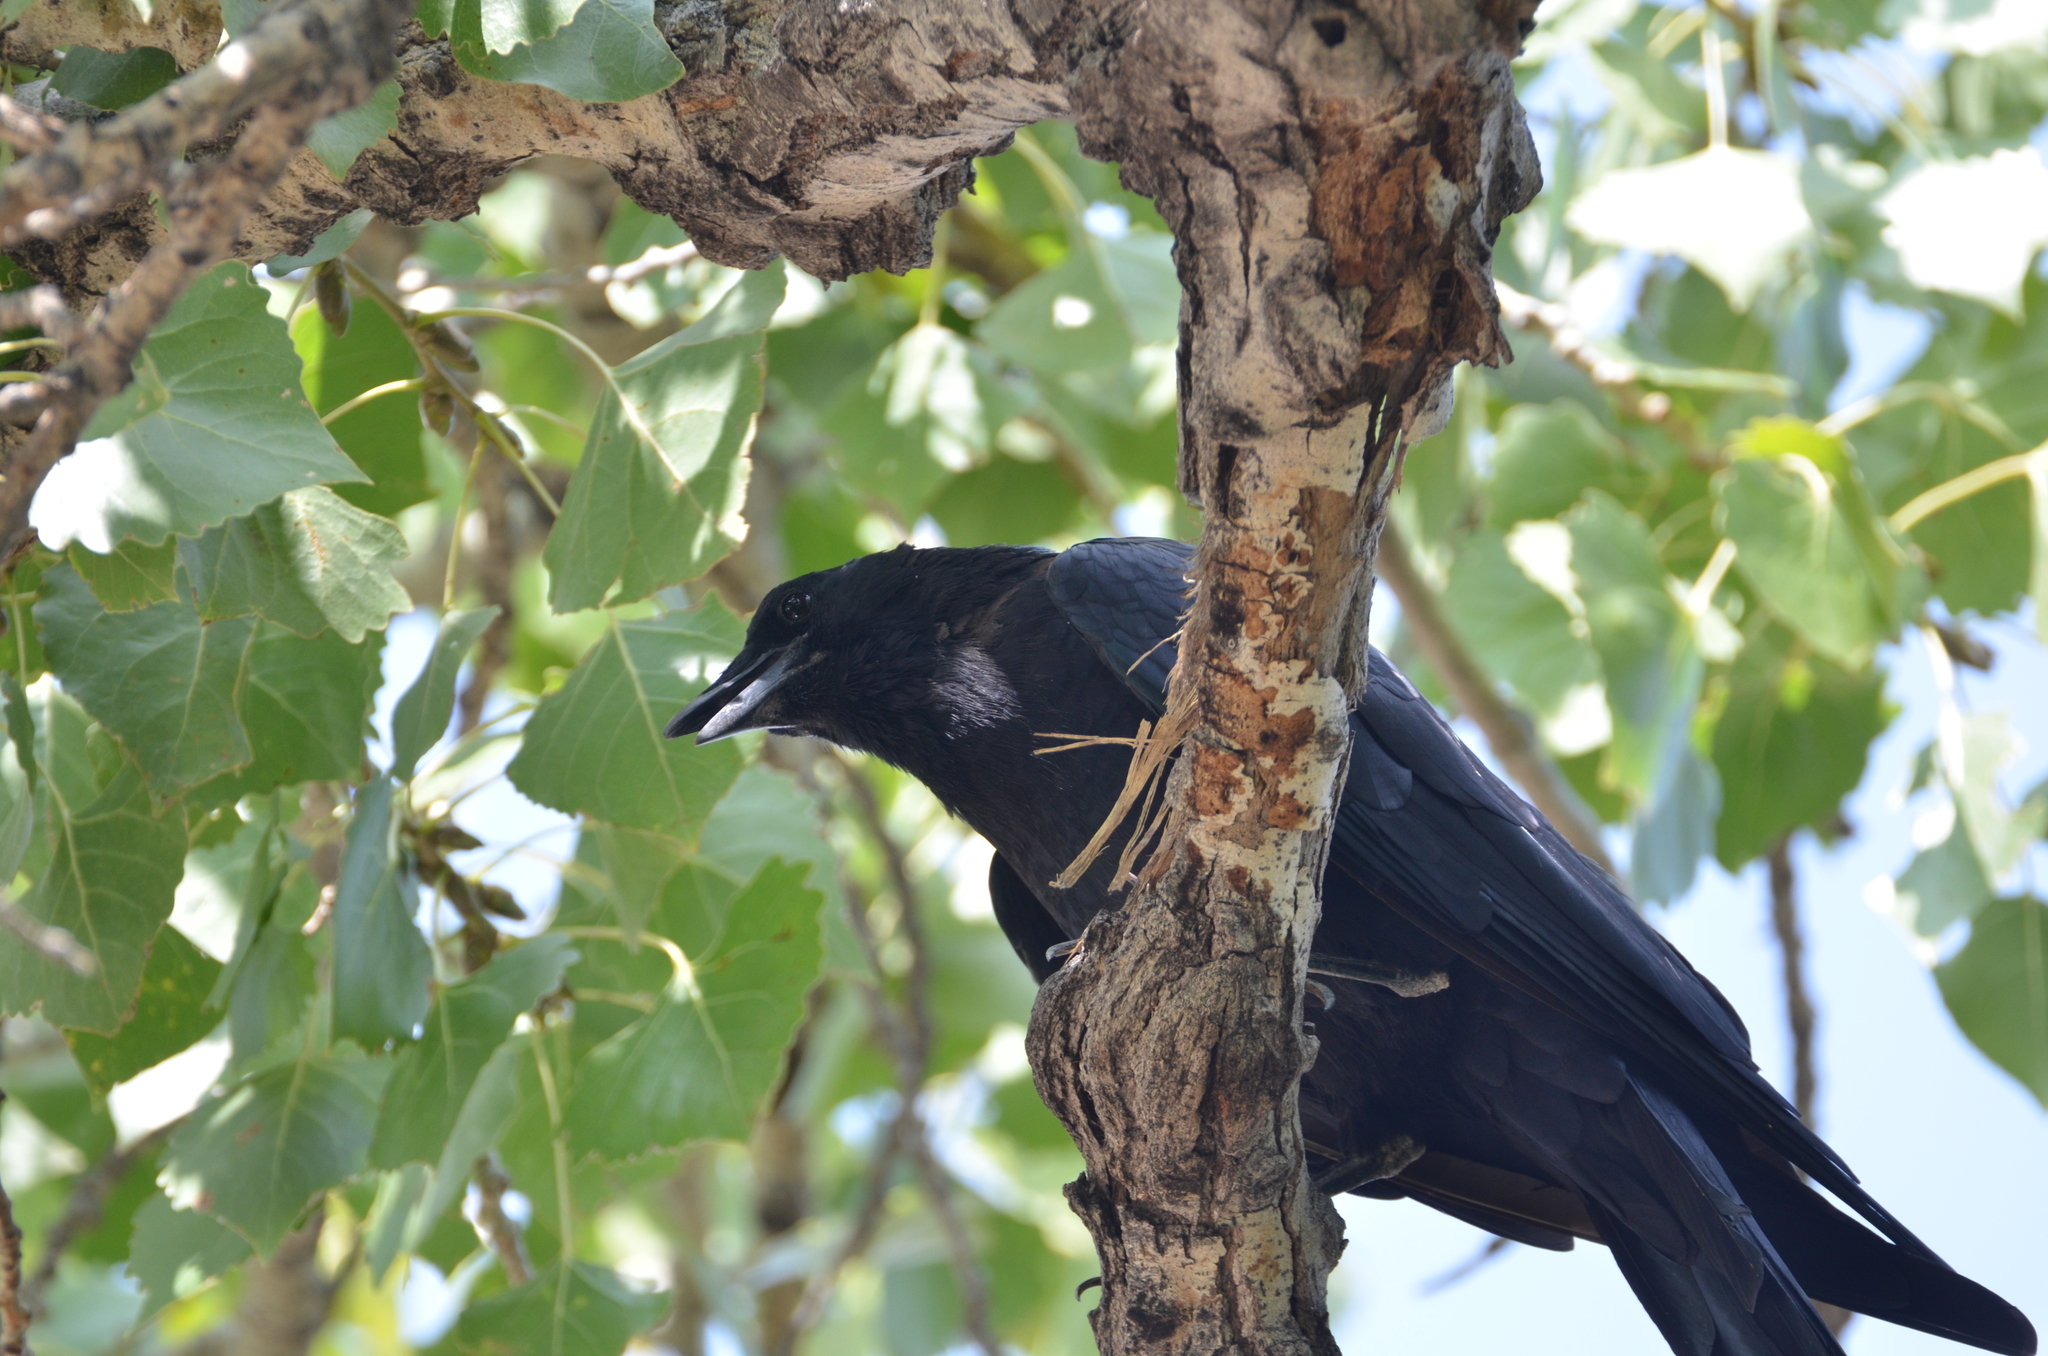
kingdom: Animalia
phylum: Chordata
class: Aves
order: Passeriformes
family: Corvidae
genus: Corvus
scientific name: Corvus brachyrhynchos
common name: American crow
